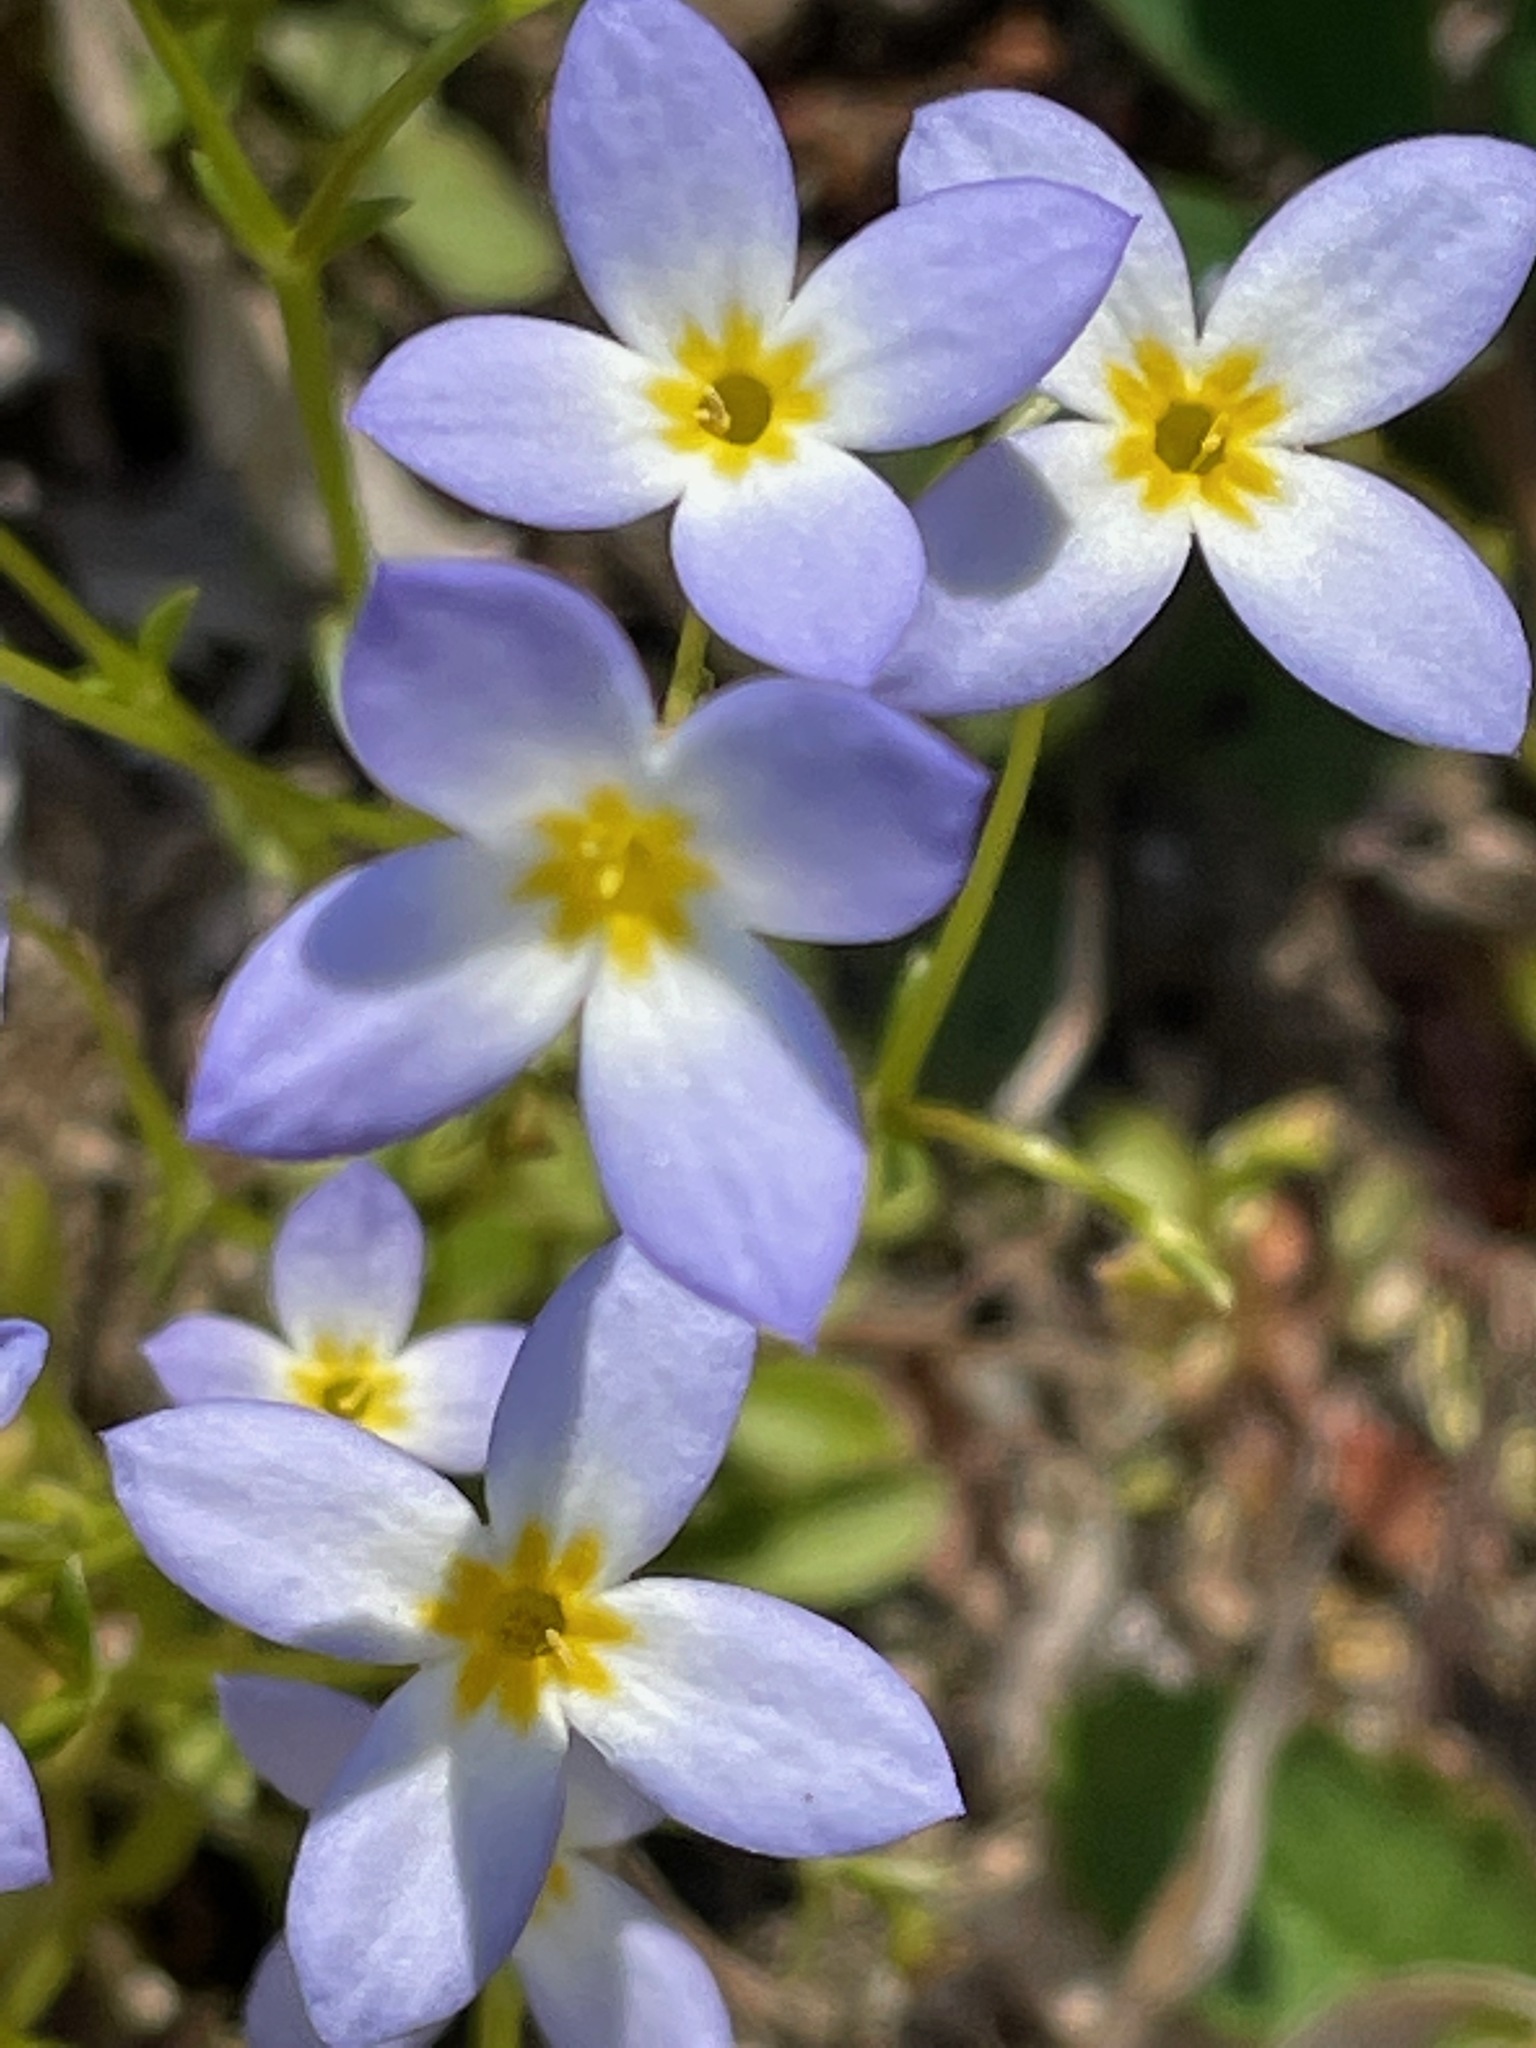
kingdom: Plantae
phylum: Tracheophyta
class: Magnoliopsida
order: Gentianales
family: Rubiaceae
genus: Houstonia
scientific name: Houstonia caerulea
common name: Bluets
